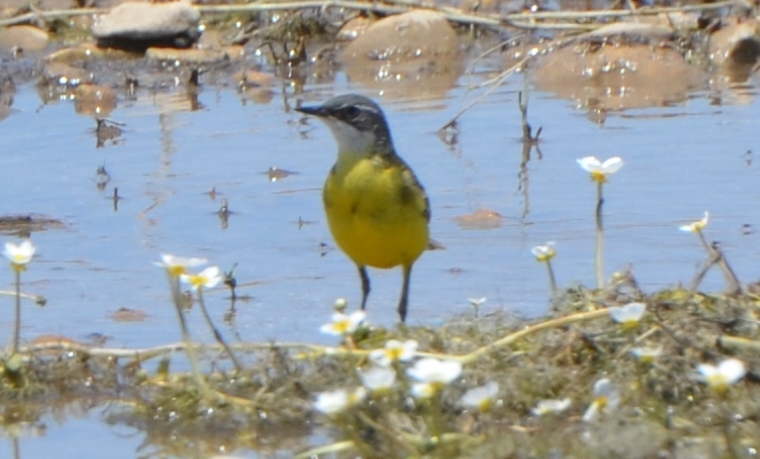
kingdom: Animalia
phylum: Chordata
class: Aves
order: Passeriformes
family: Motacillidae
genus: Motacilla
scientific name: Motacilla flava
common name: Western yellow wagtail
